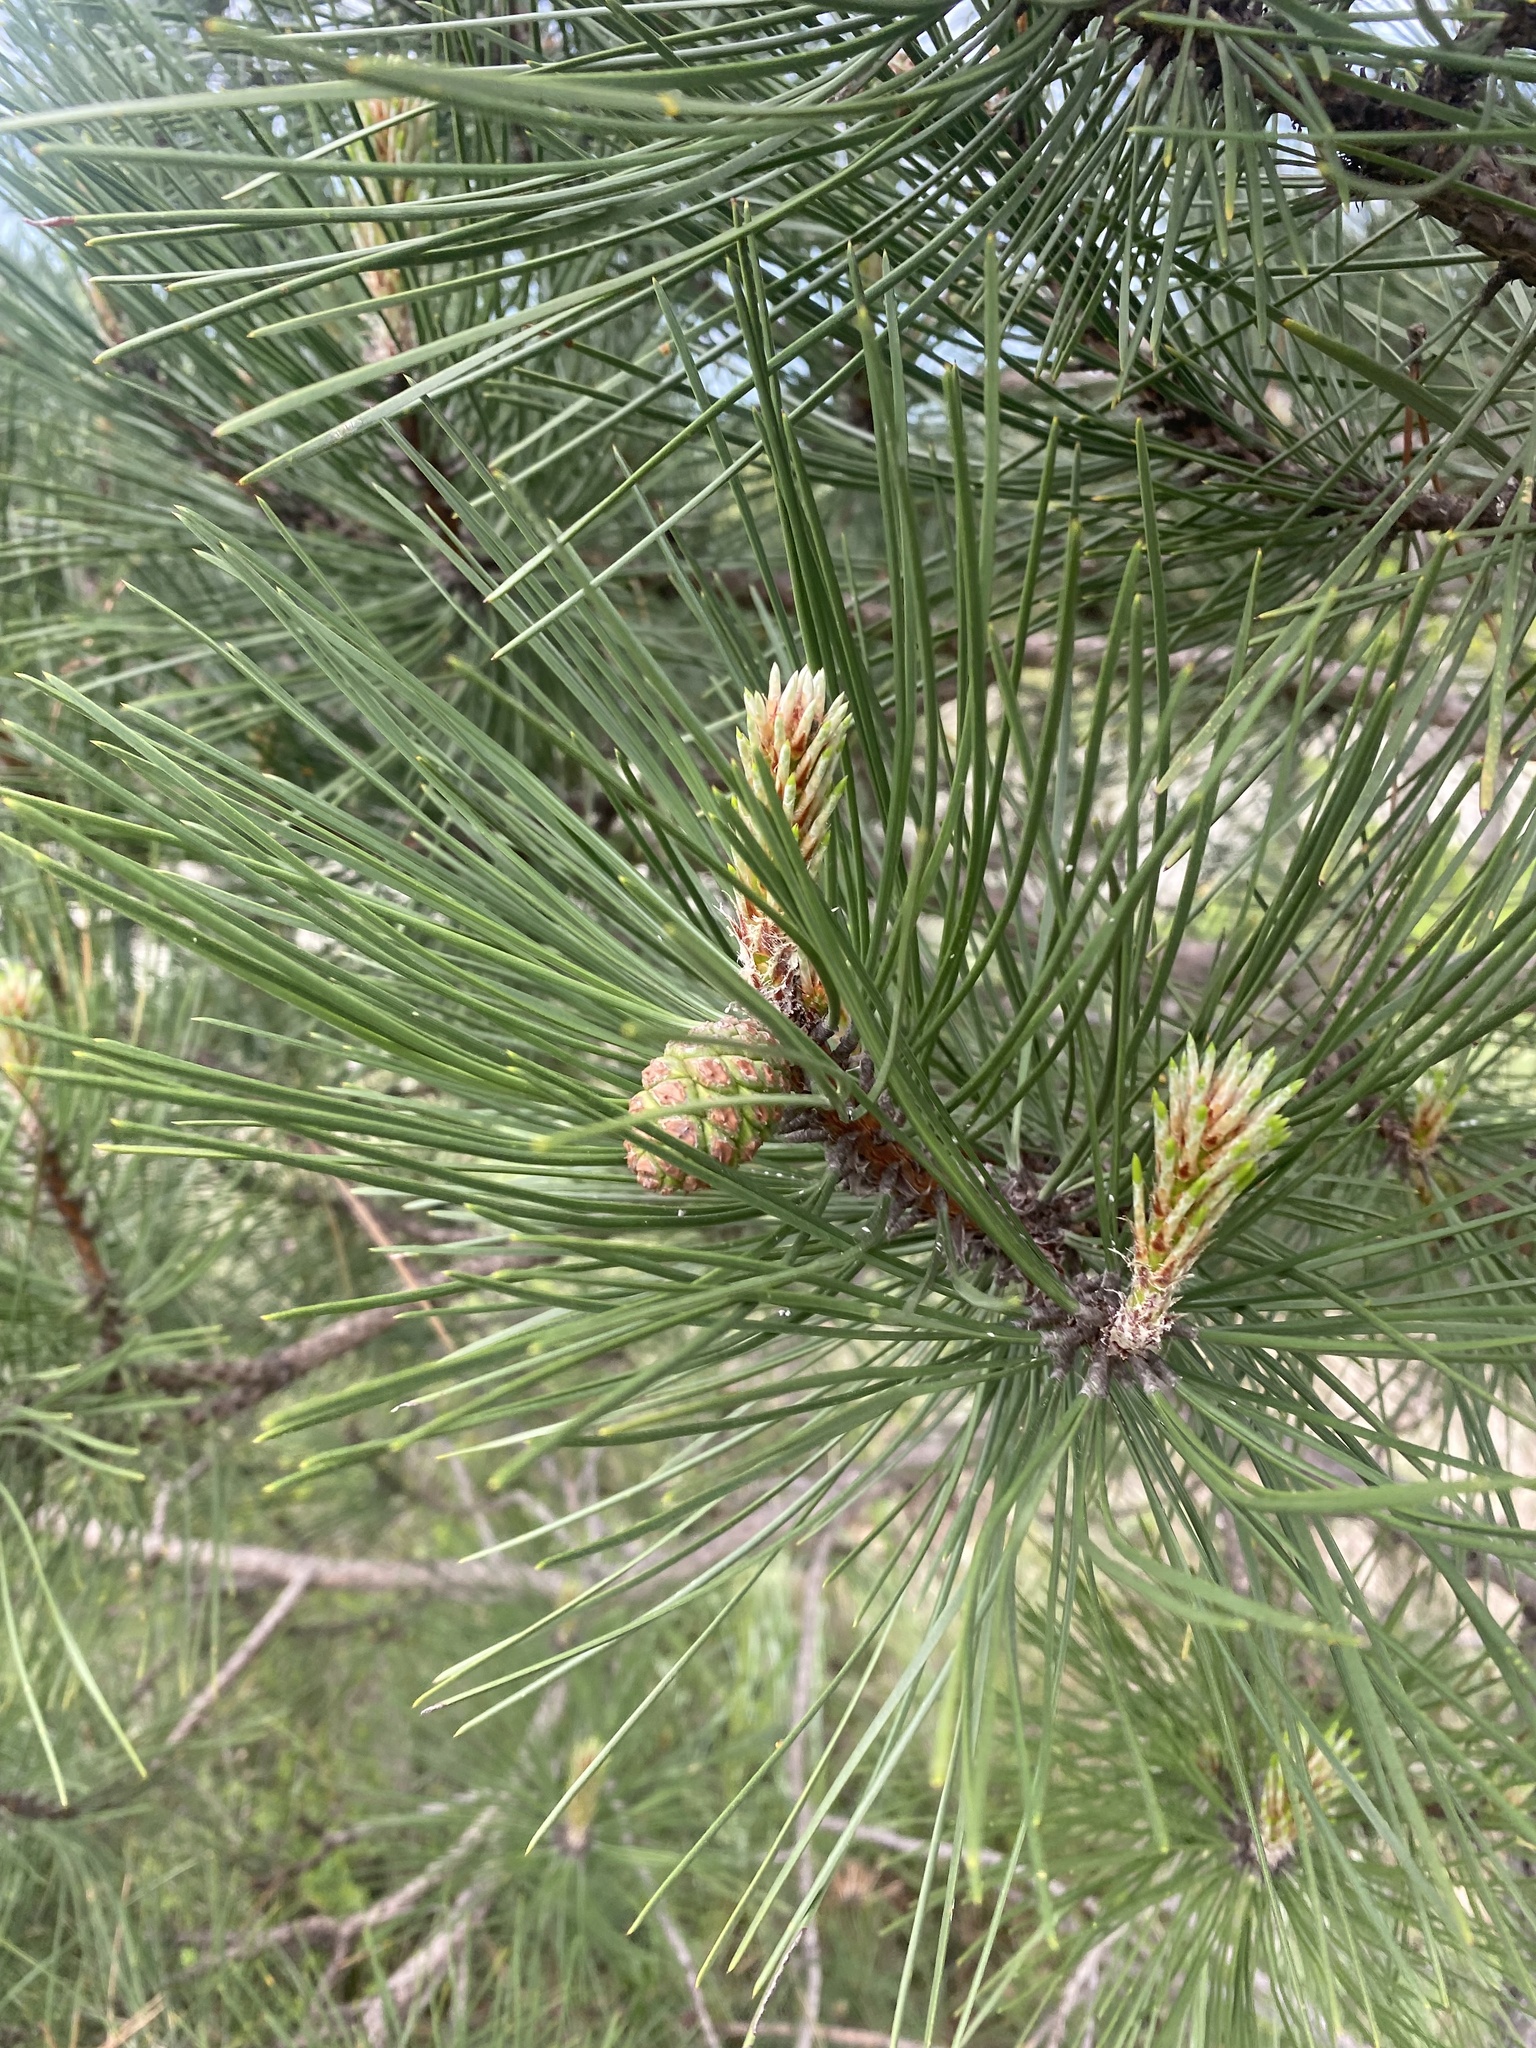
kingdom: Plantae
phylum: Tracheophyta
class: Pinopsida
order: Pinales
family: Pinaceae
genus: Pinus
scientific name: Pinus brutia
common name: Turkish pine
